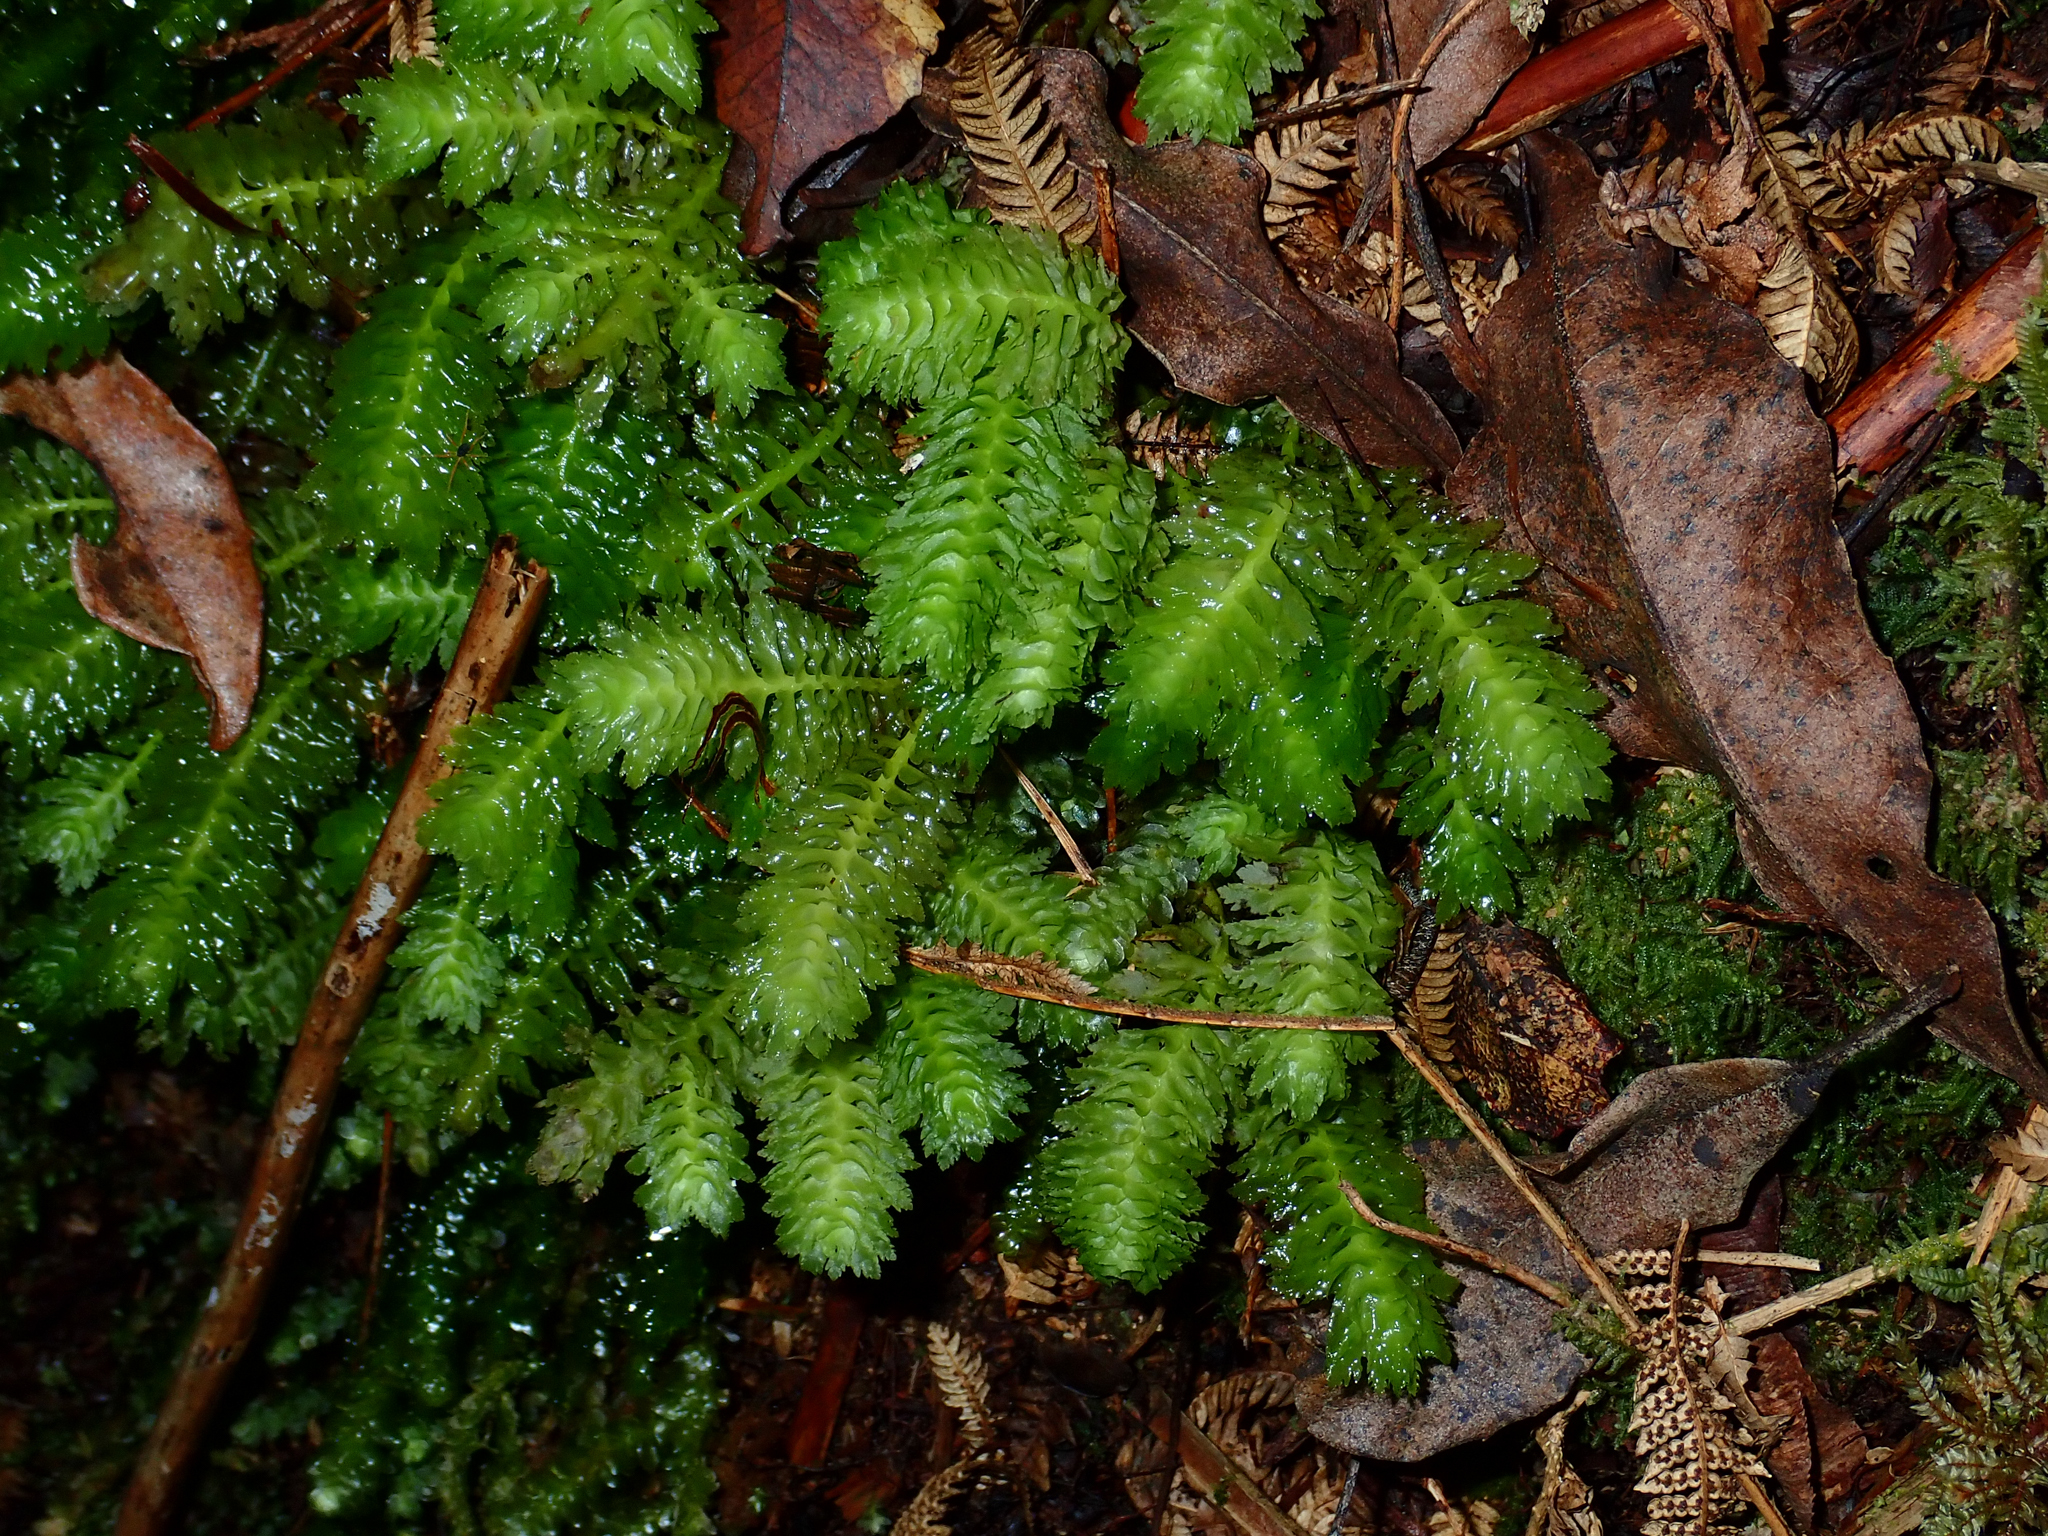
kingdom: Plantae
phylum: Marchantiophyta
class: Jungermanniopsida
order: Jungermanniales
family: Schistochilaceae
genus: Schistochila
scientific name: Schistochila appendiculata
